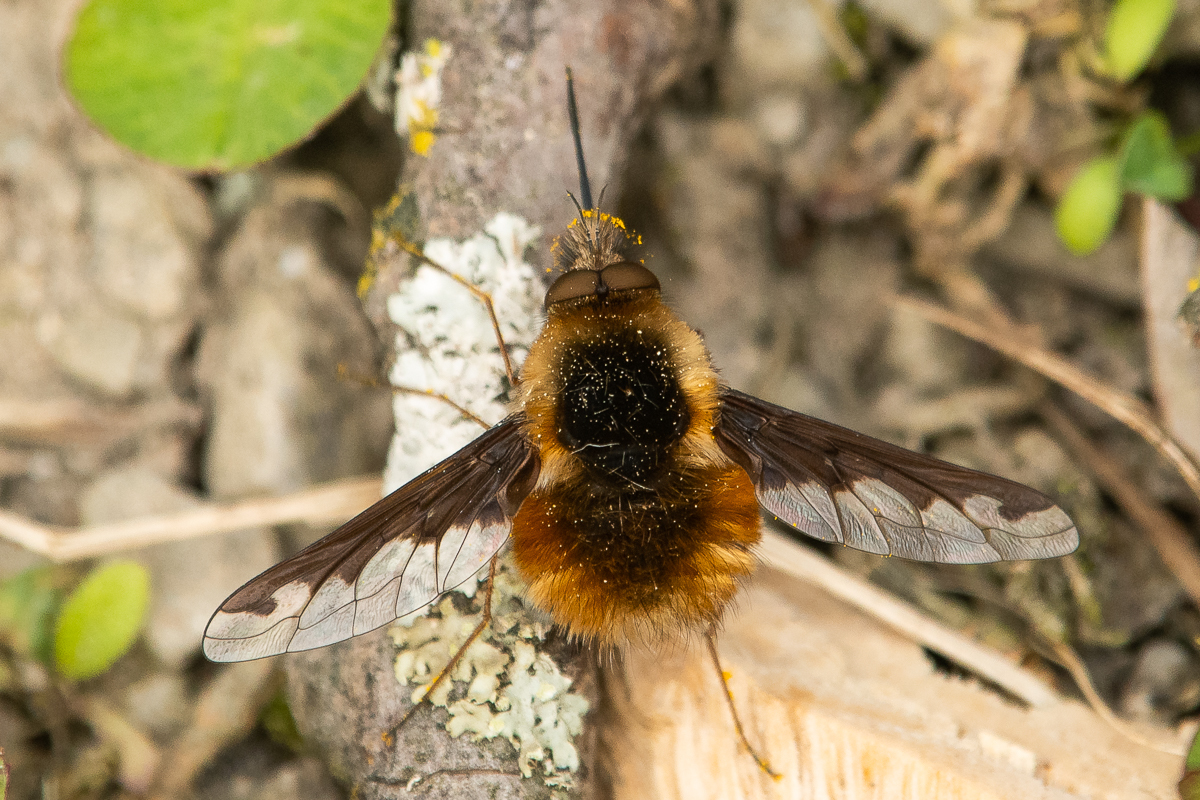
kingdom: Animalia
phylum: Arthropoda
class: Insecta
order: Diptera
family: Bombyliidae
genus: Bombylius
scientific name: Bombylius major
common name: Bee fly
